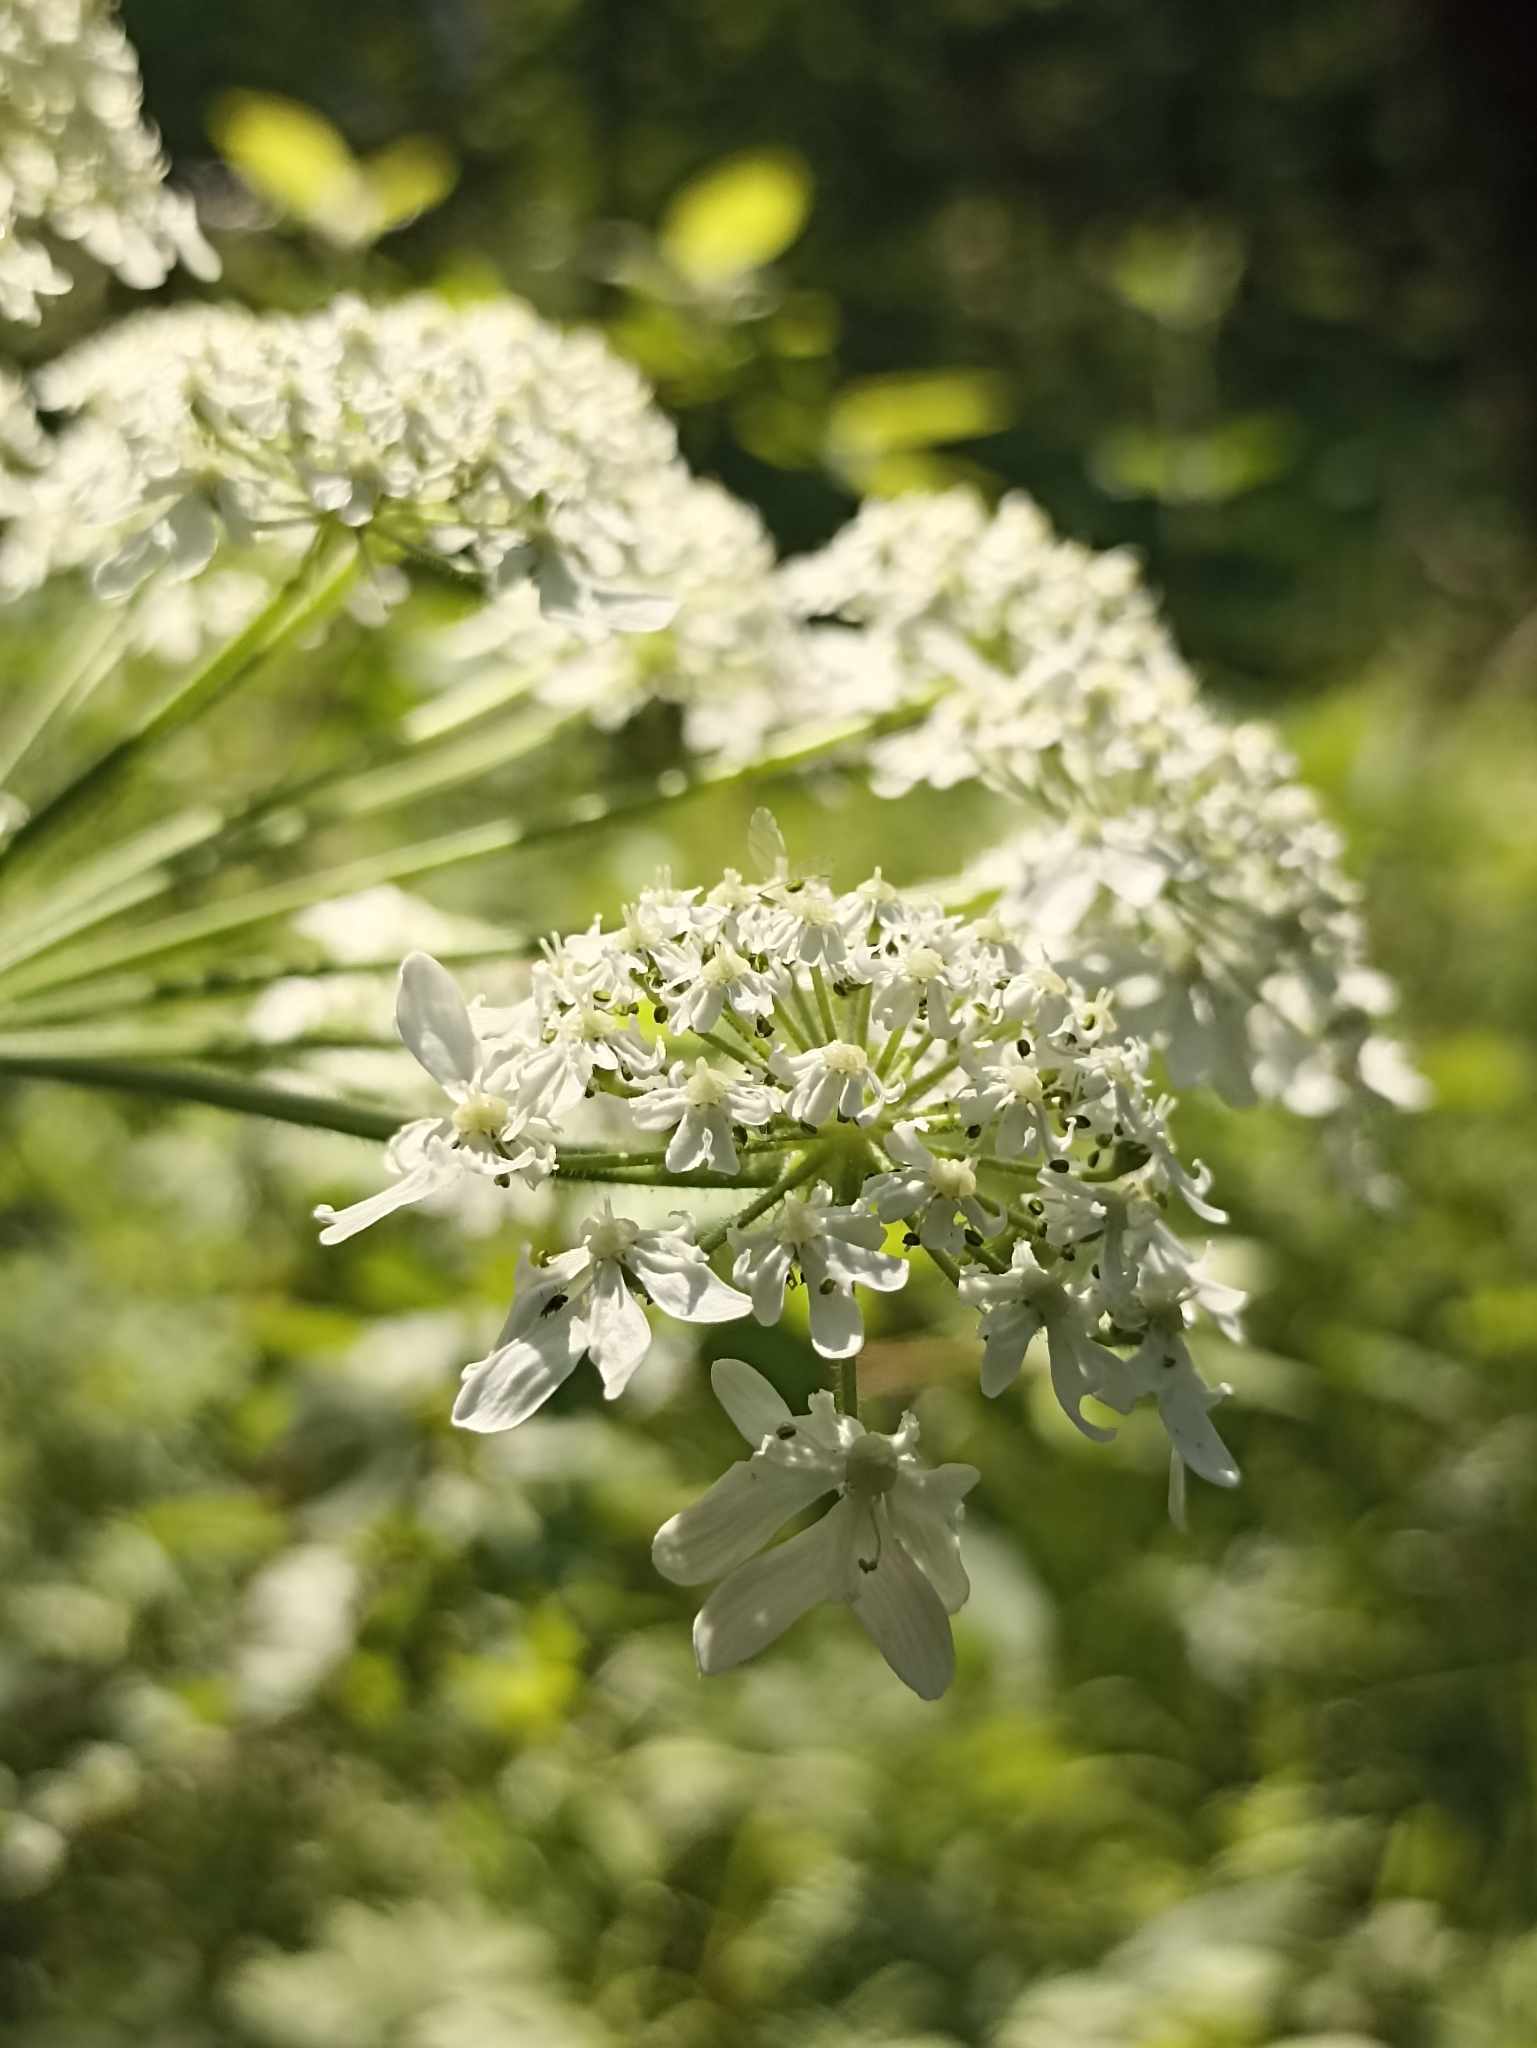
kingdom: Plantae
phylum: Tracheophyta
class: Magnoliopsida
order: Apiales
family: Apiaceae
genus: Heracleum
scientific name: Heracleum dissectum
